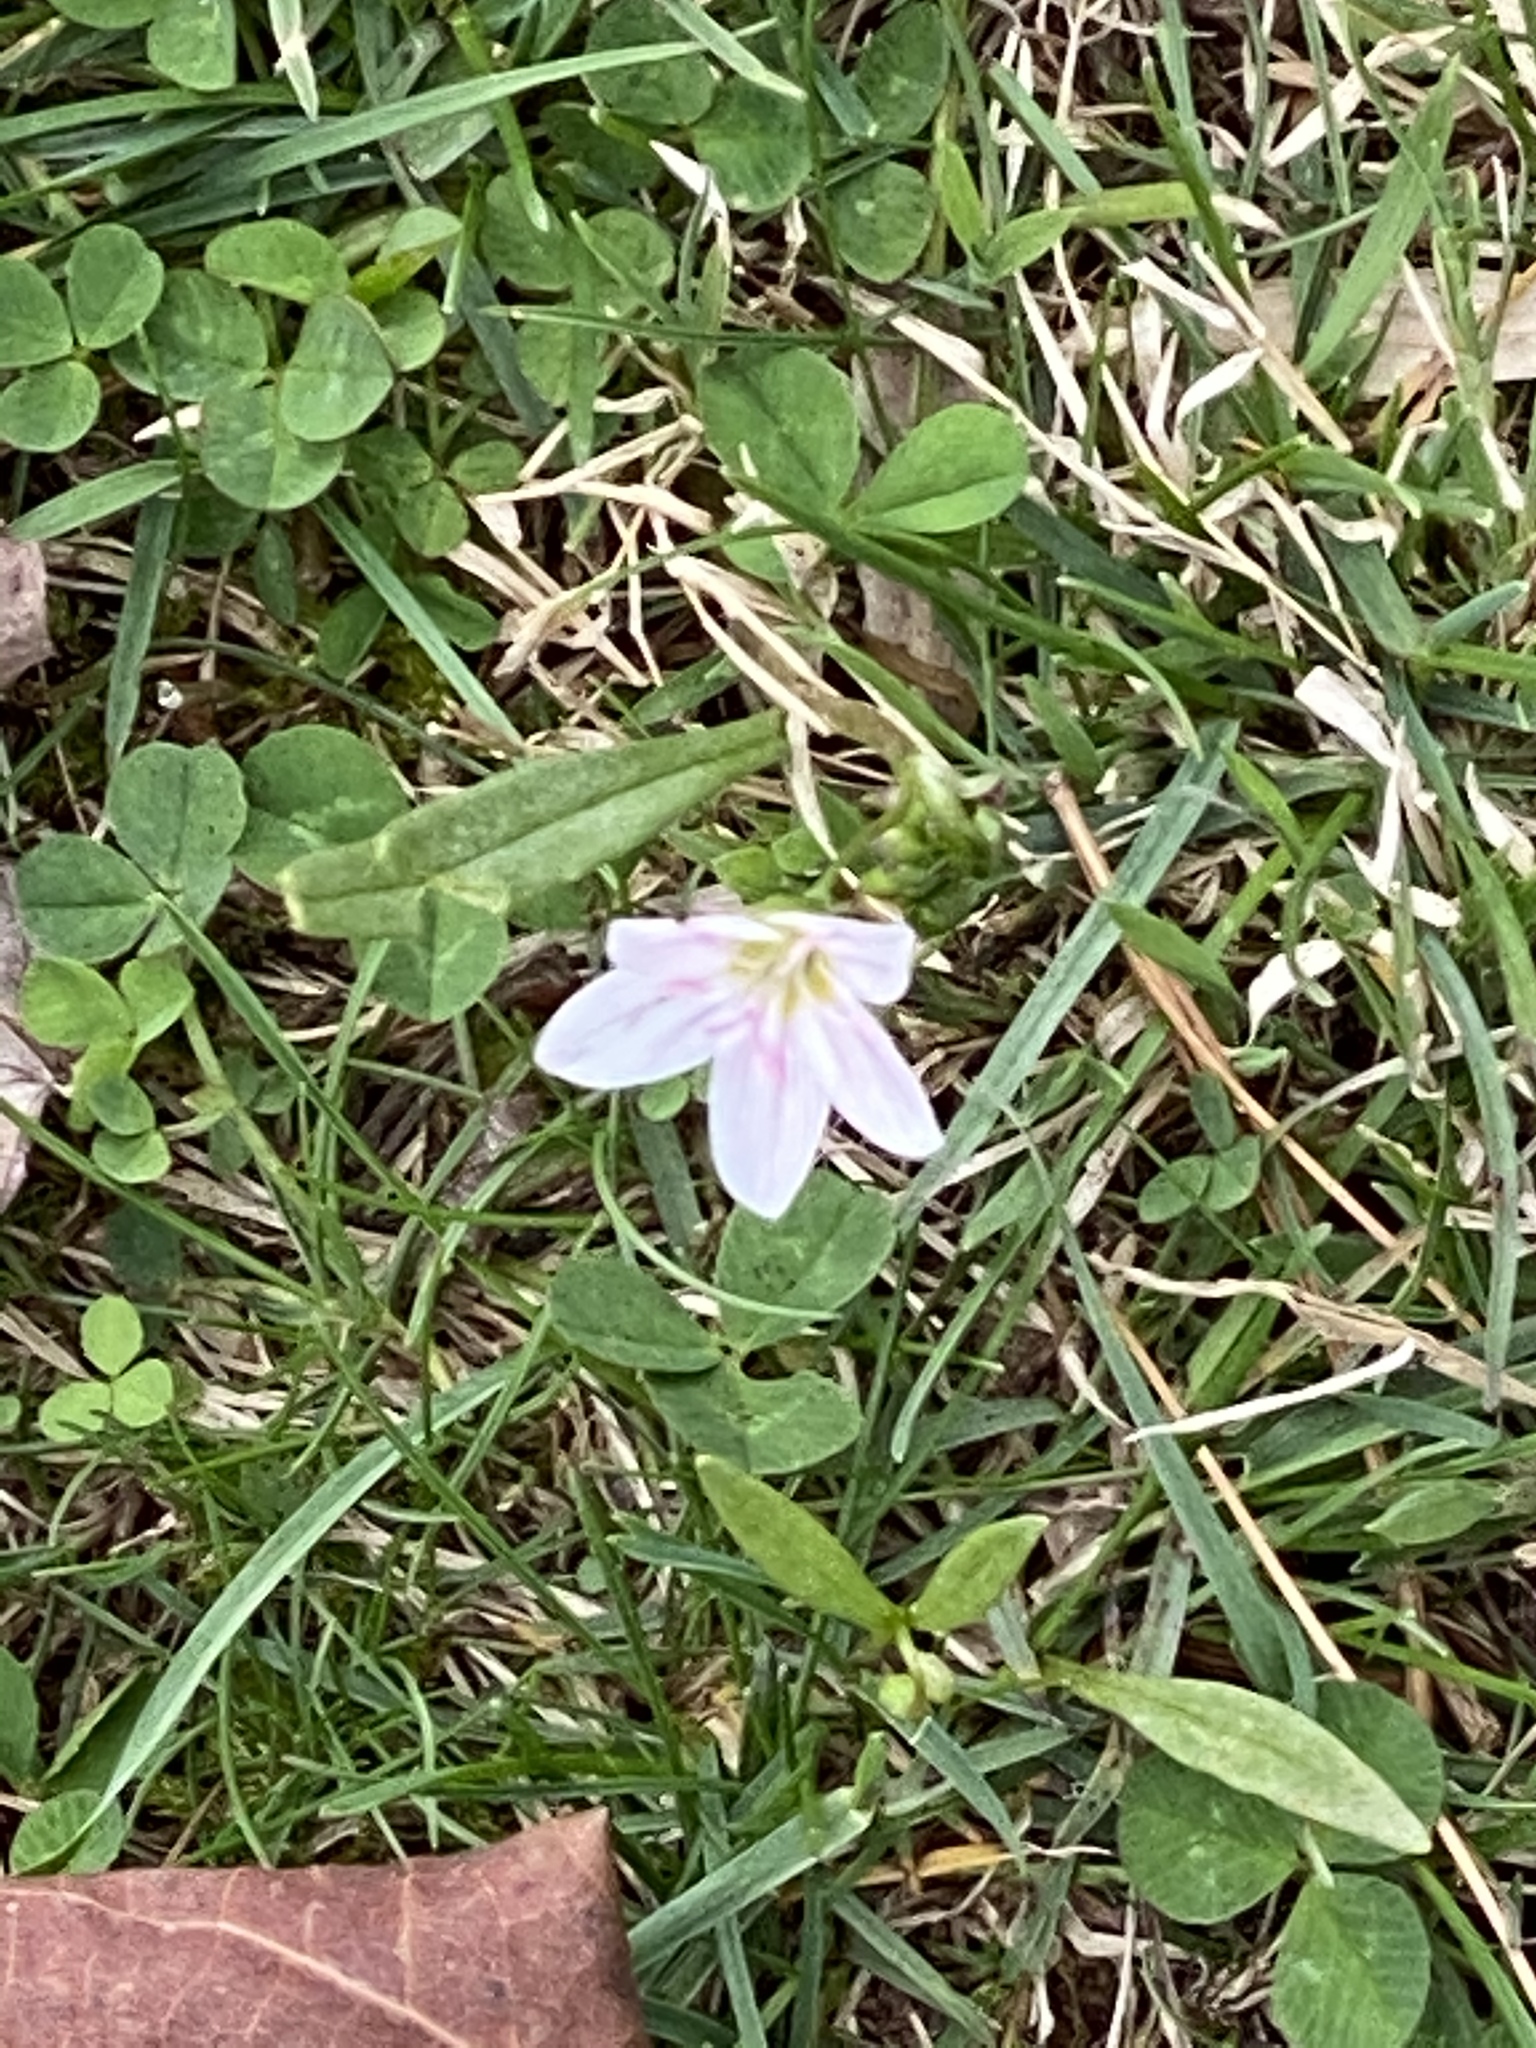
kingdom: Plantae
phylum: Tracheophyta
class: Magnoliopsida
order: Caryophyllales
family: Montiaceae
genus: Claytonia
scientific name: Claytonia virginica
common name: Virginia springbeauty
